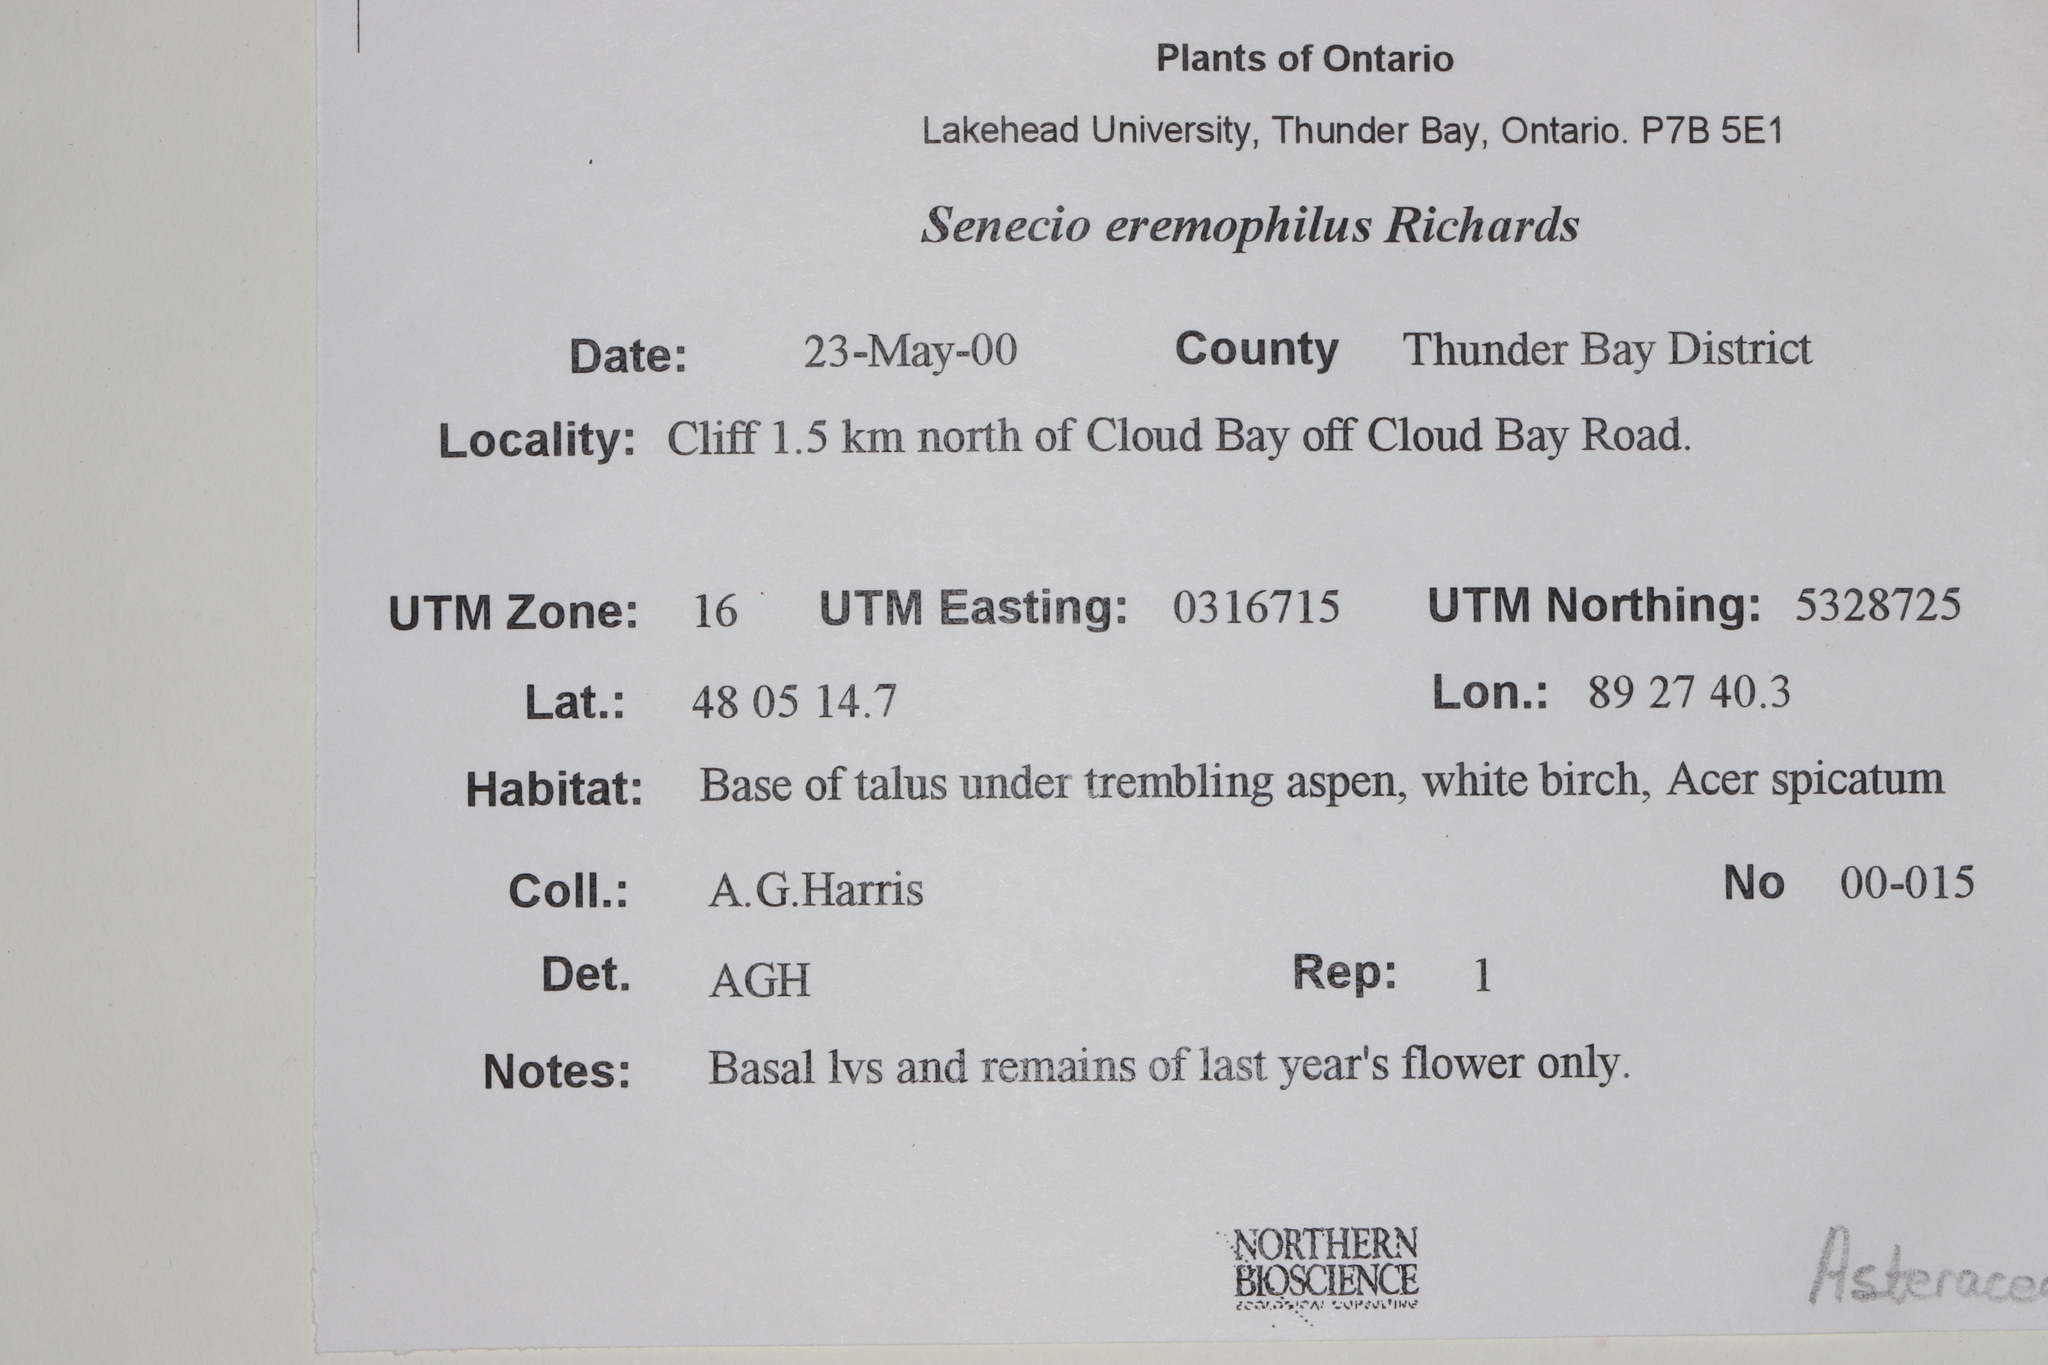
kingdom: Plantae
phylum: Tracheophyta
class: Magnoliopsida
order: Asterales
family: Asteraceae
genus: Senecio
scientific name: Senecio eremophilus
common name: Desert ragwort
